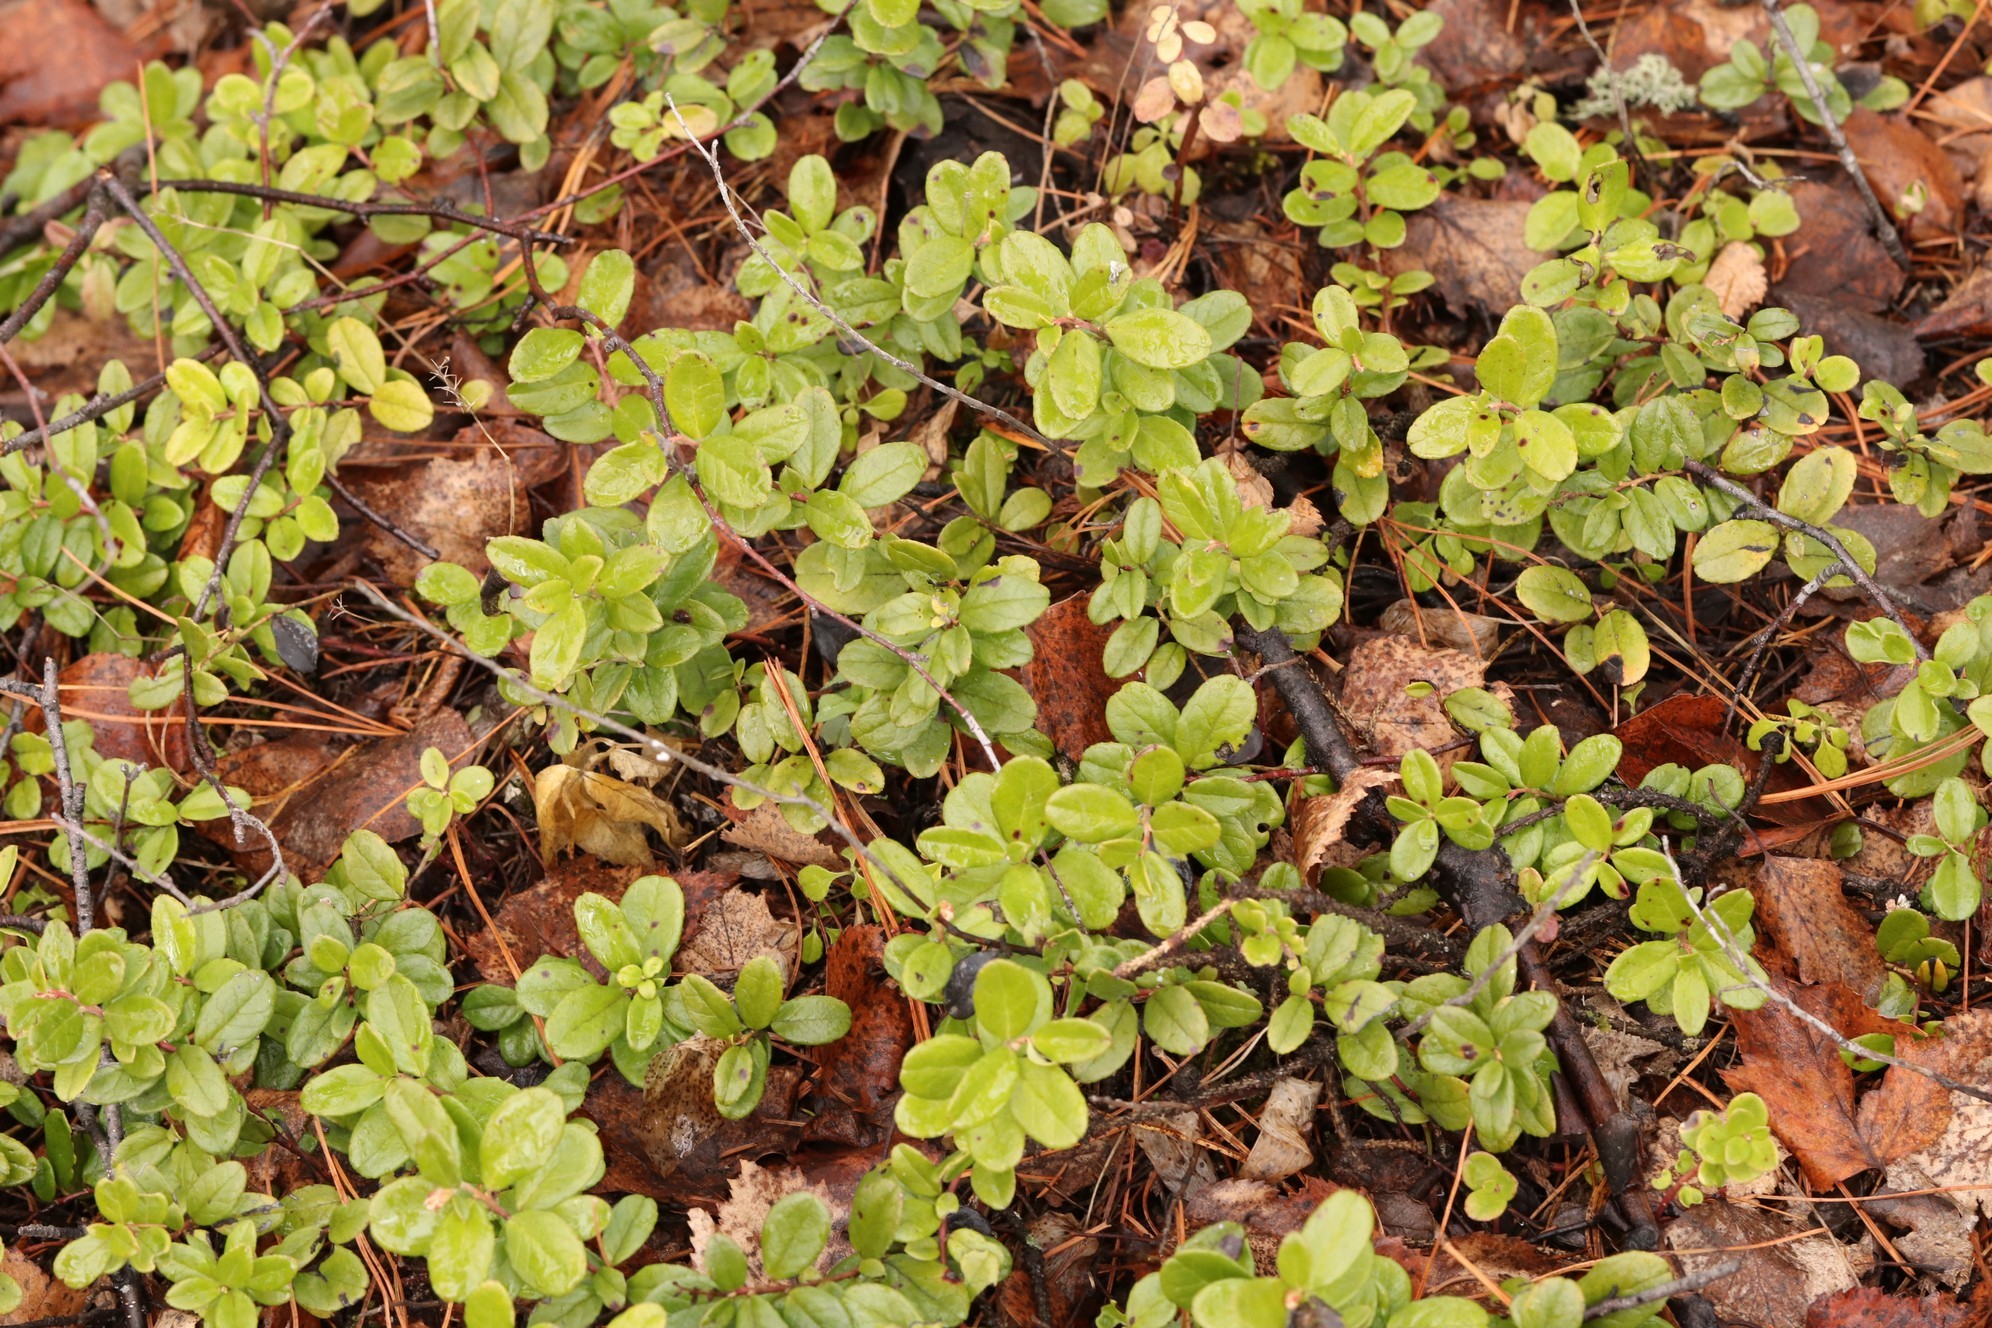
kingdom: Plantae
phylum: Tracheophyta
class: Magnoliopsida
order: Ericales
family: Ericaceae
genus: Vaccinium
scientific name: Vaccinium vitis-idaea
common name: Cowberry
